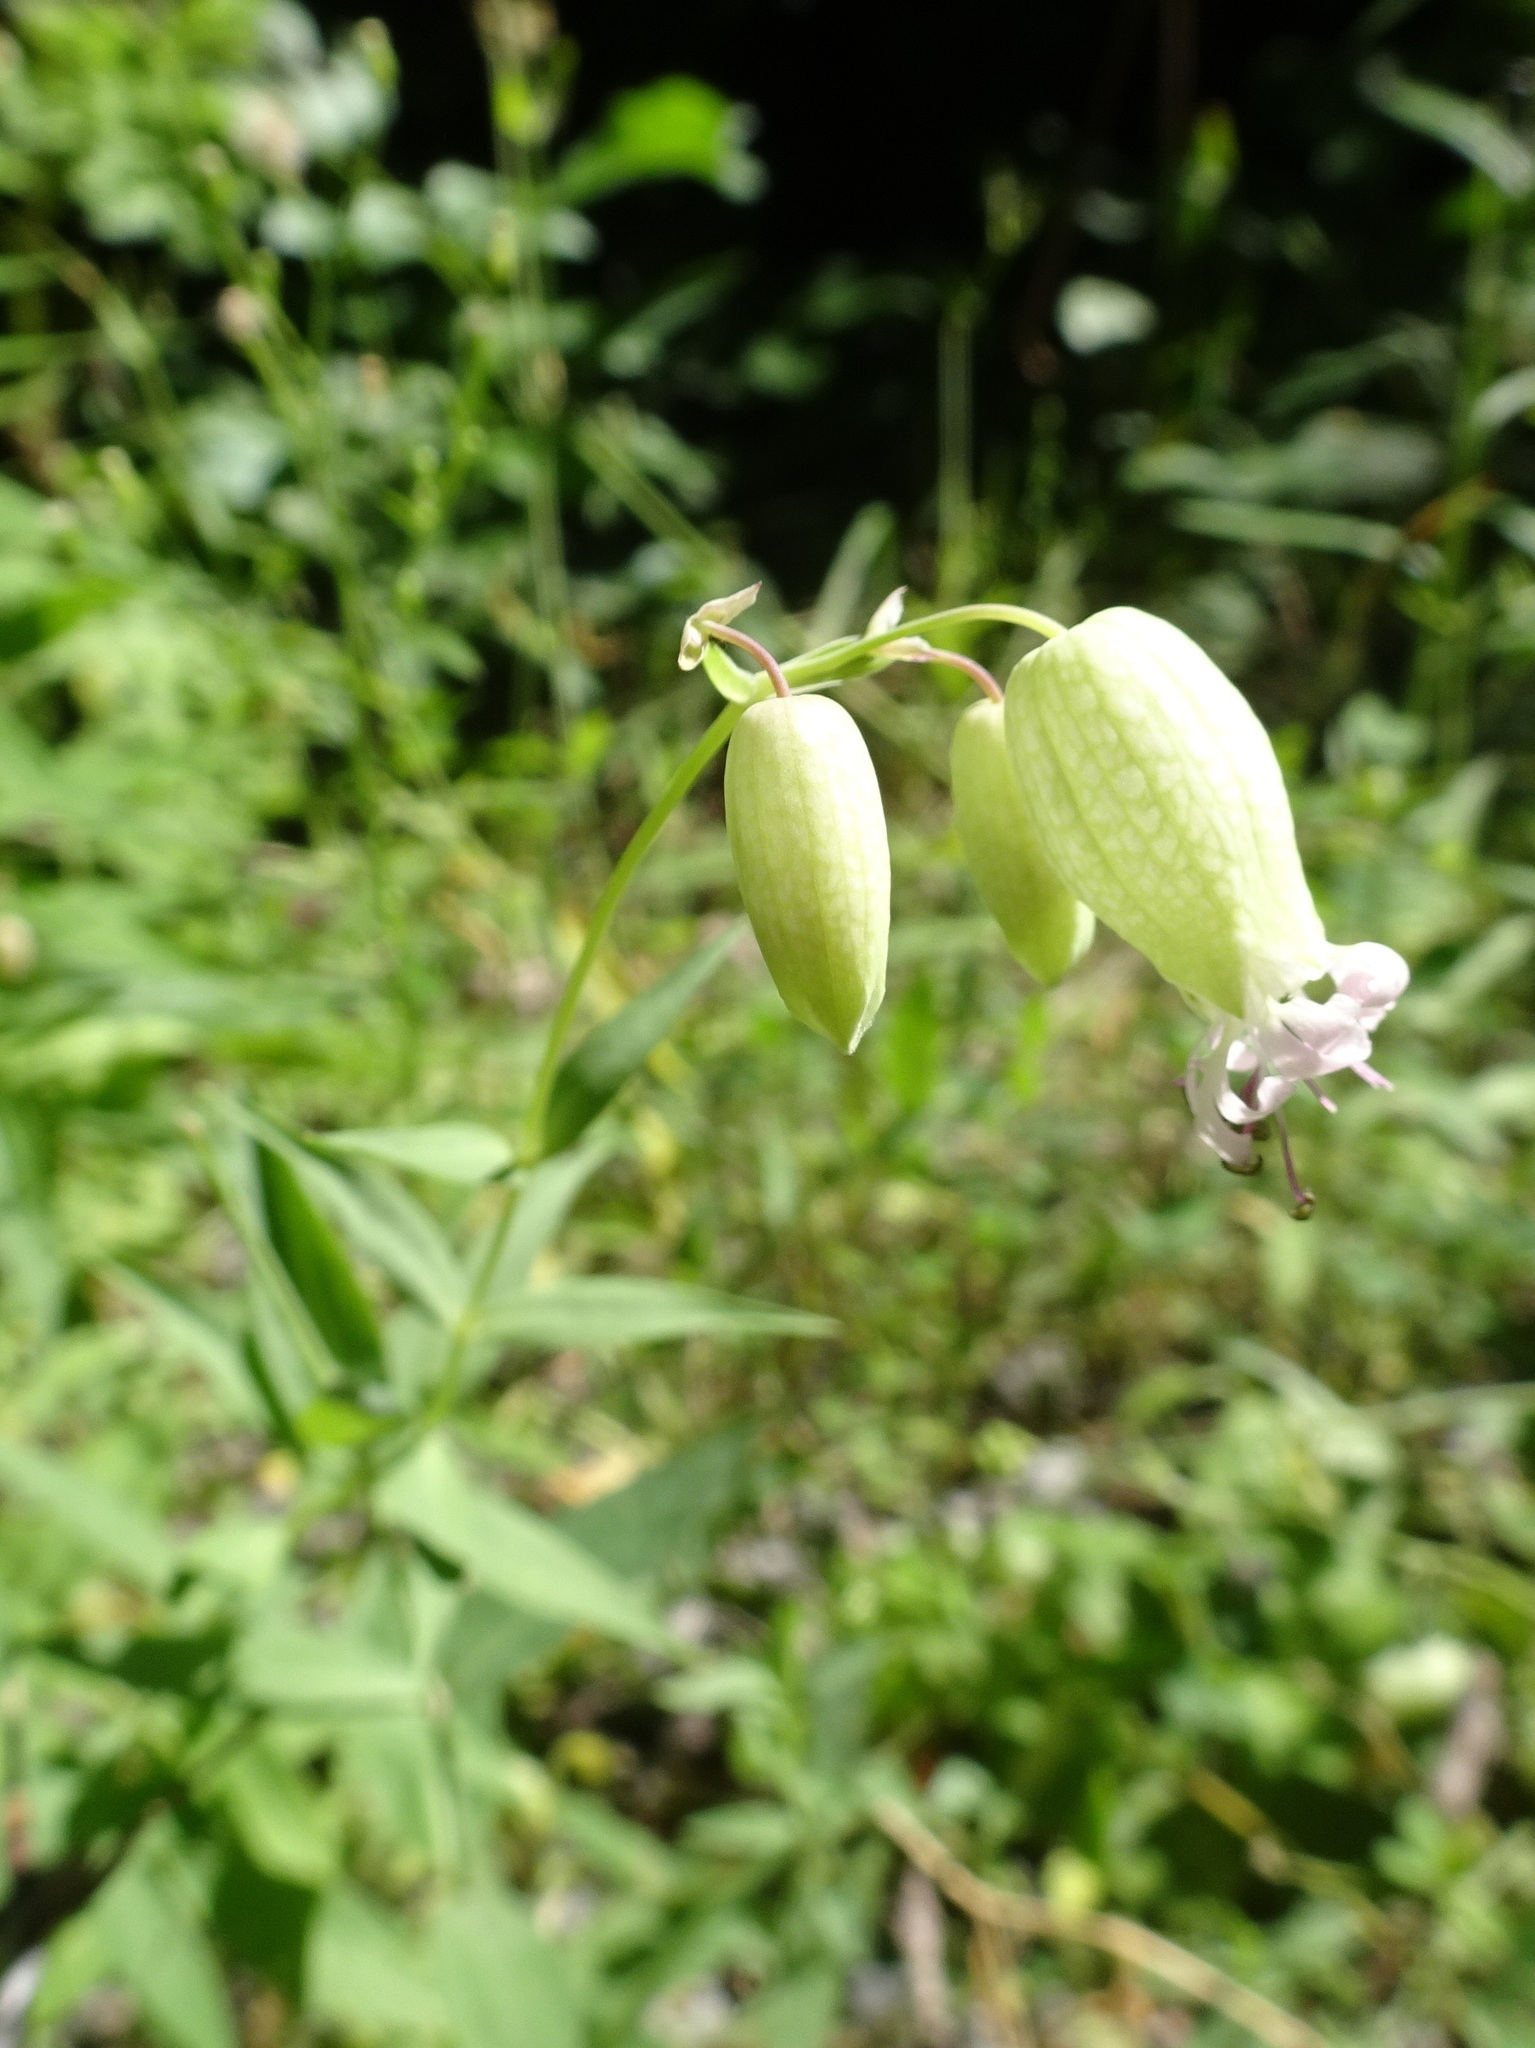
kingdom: Plantae
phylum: Tracheophyta
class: Magnoliopsida
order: Caryophyllales
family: Caryophyllaceae
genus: Silene
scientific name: Silene vulgaris
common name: Bladder campion
